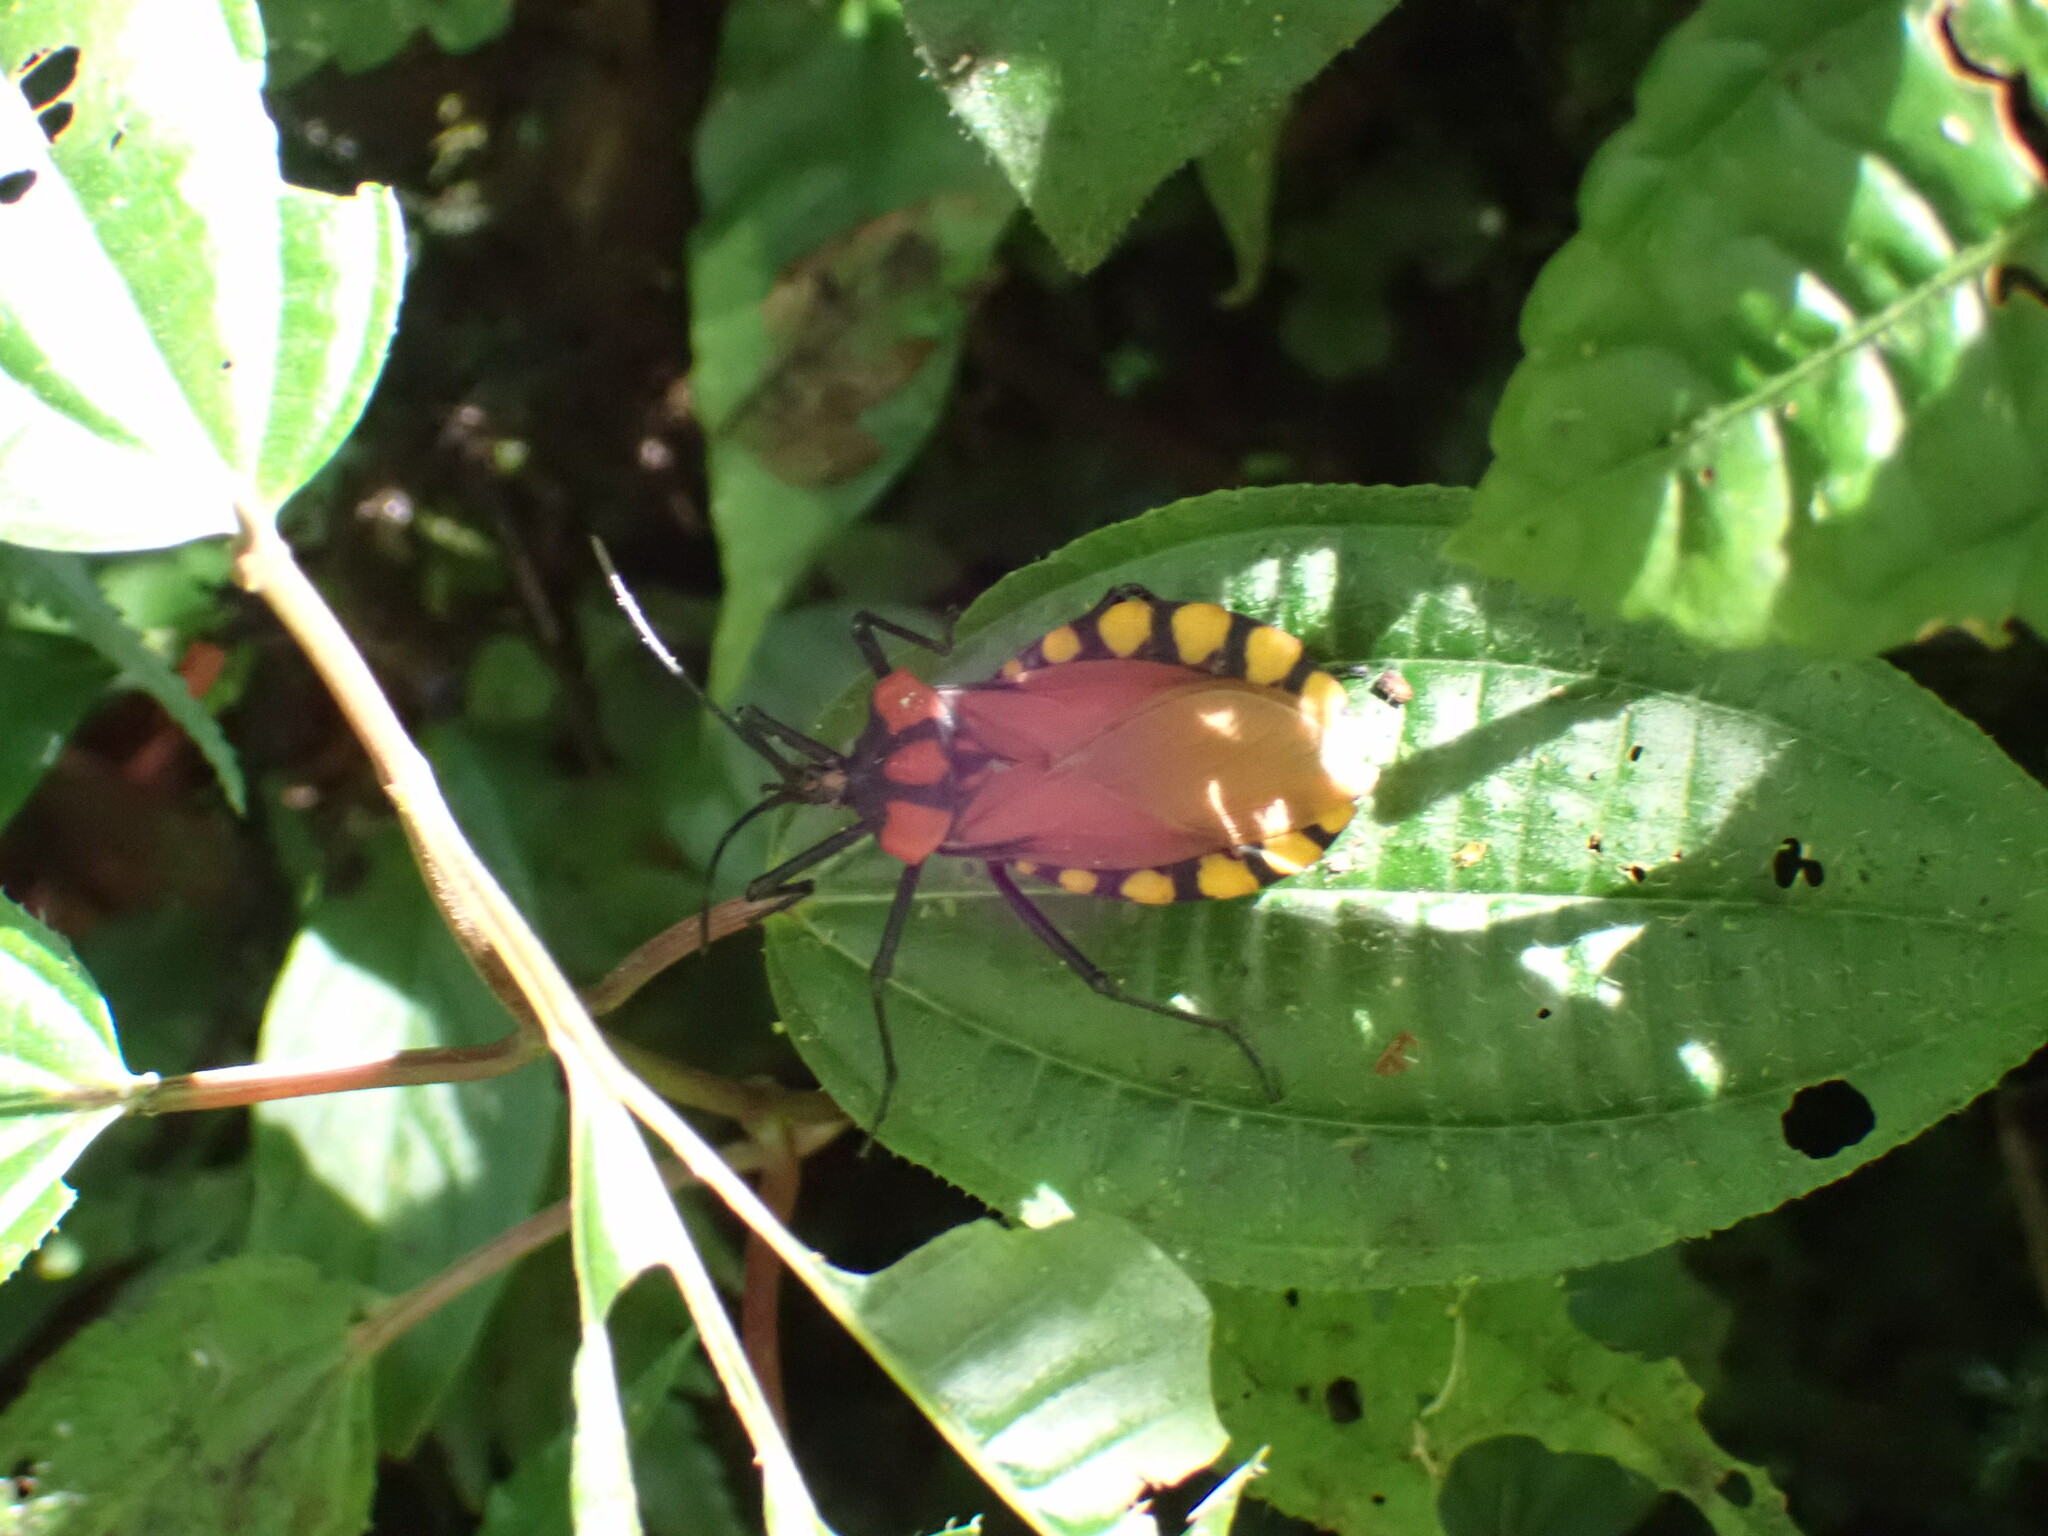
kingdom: Animalia
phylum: Arthropoda
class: Insecta
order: Hemiptera
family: Coreidae
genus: Spartocera
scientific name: Spartocera gigantea
